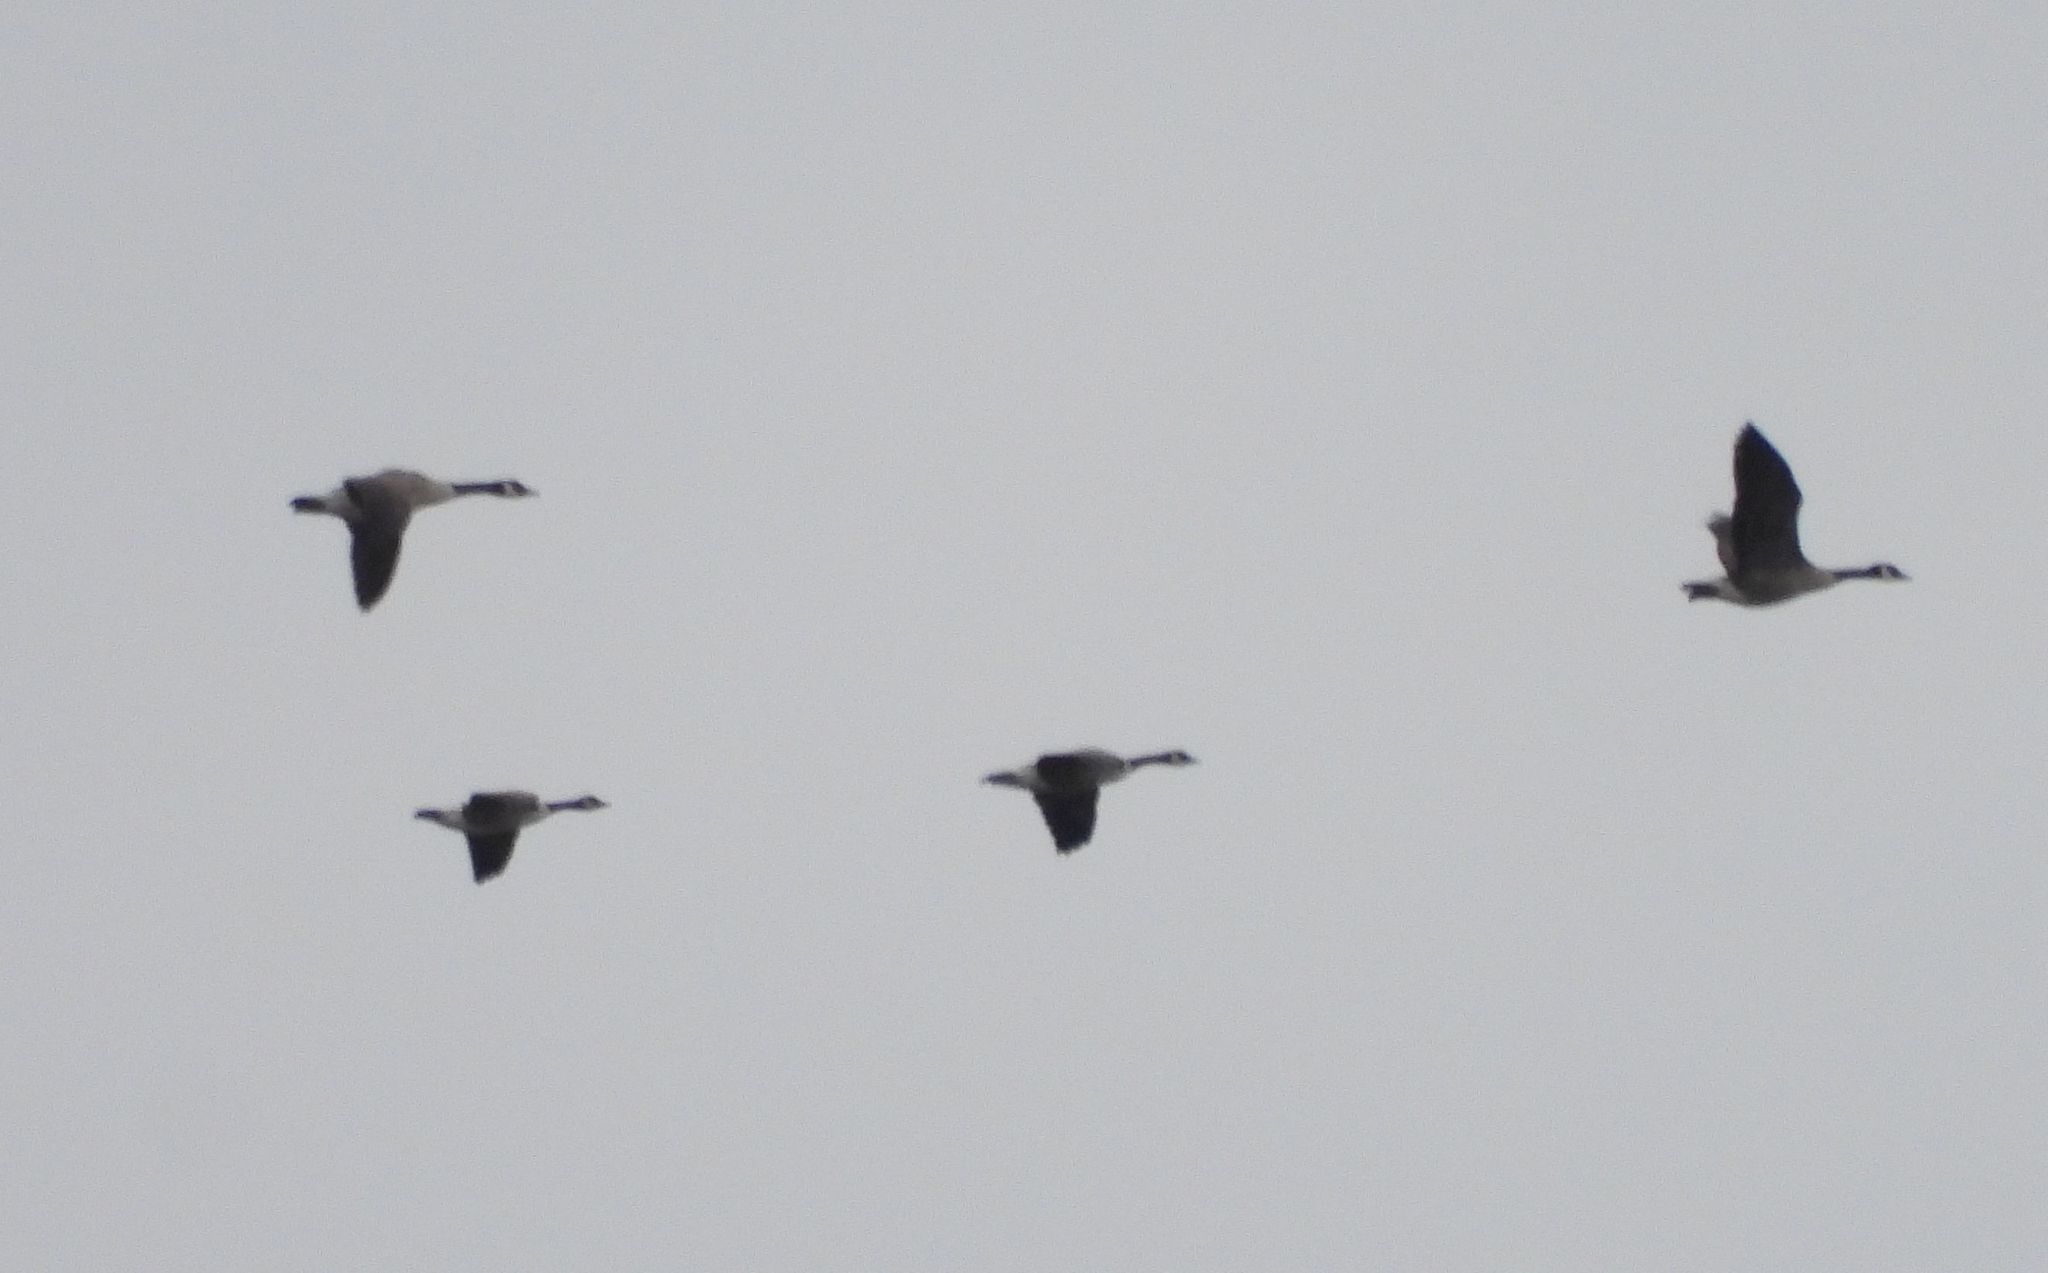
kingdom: Animalia
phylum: Chordata
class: Aves
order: Anseriformes
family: Anatidae
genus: Branta
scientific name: Branta canadensis
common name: Canada goose
